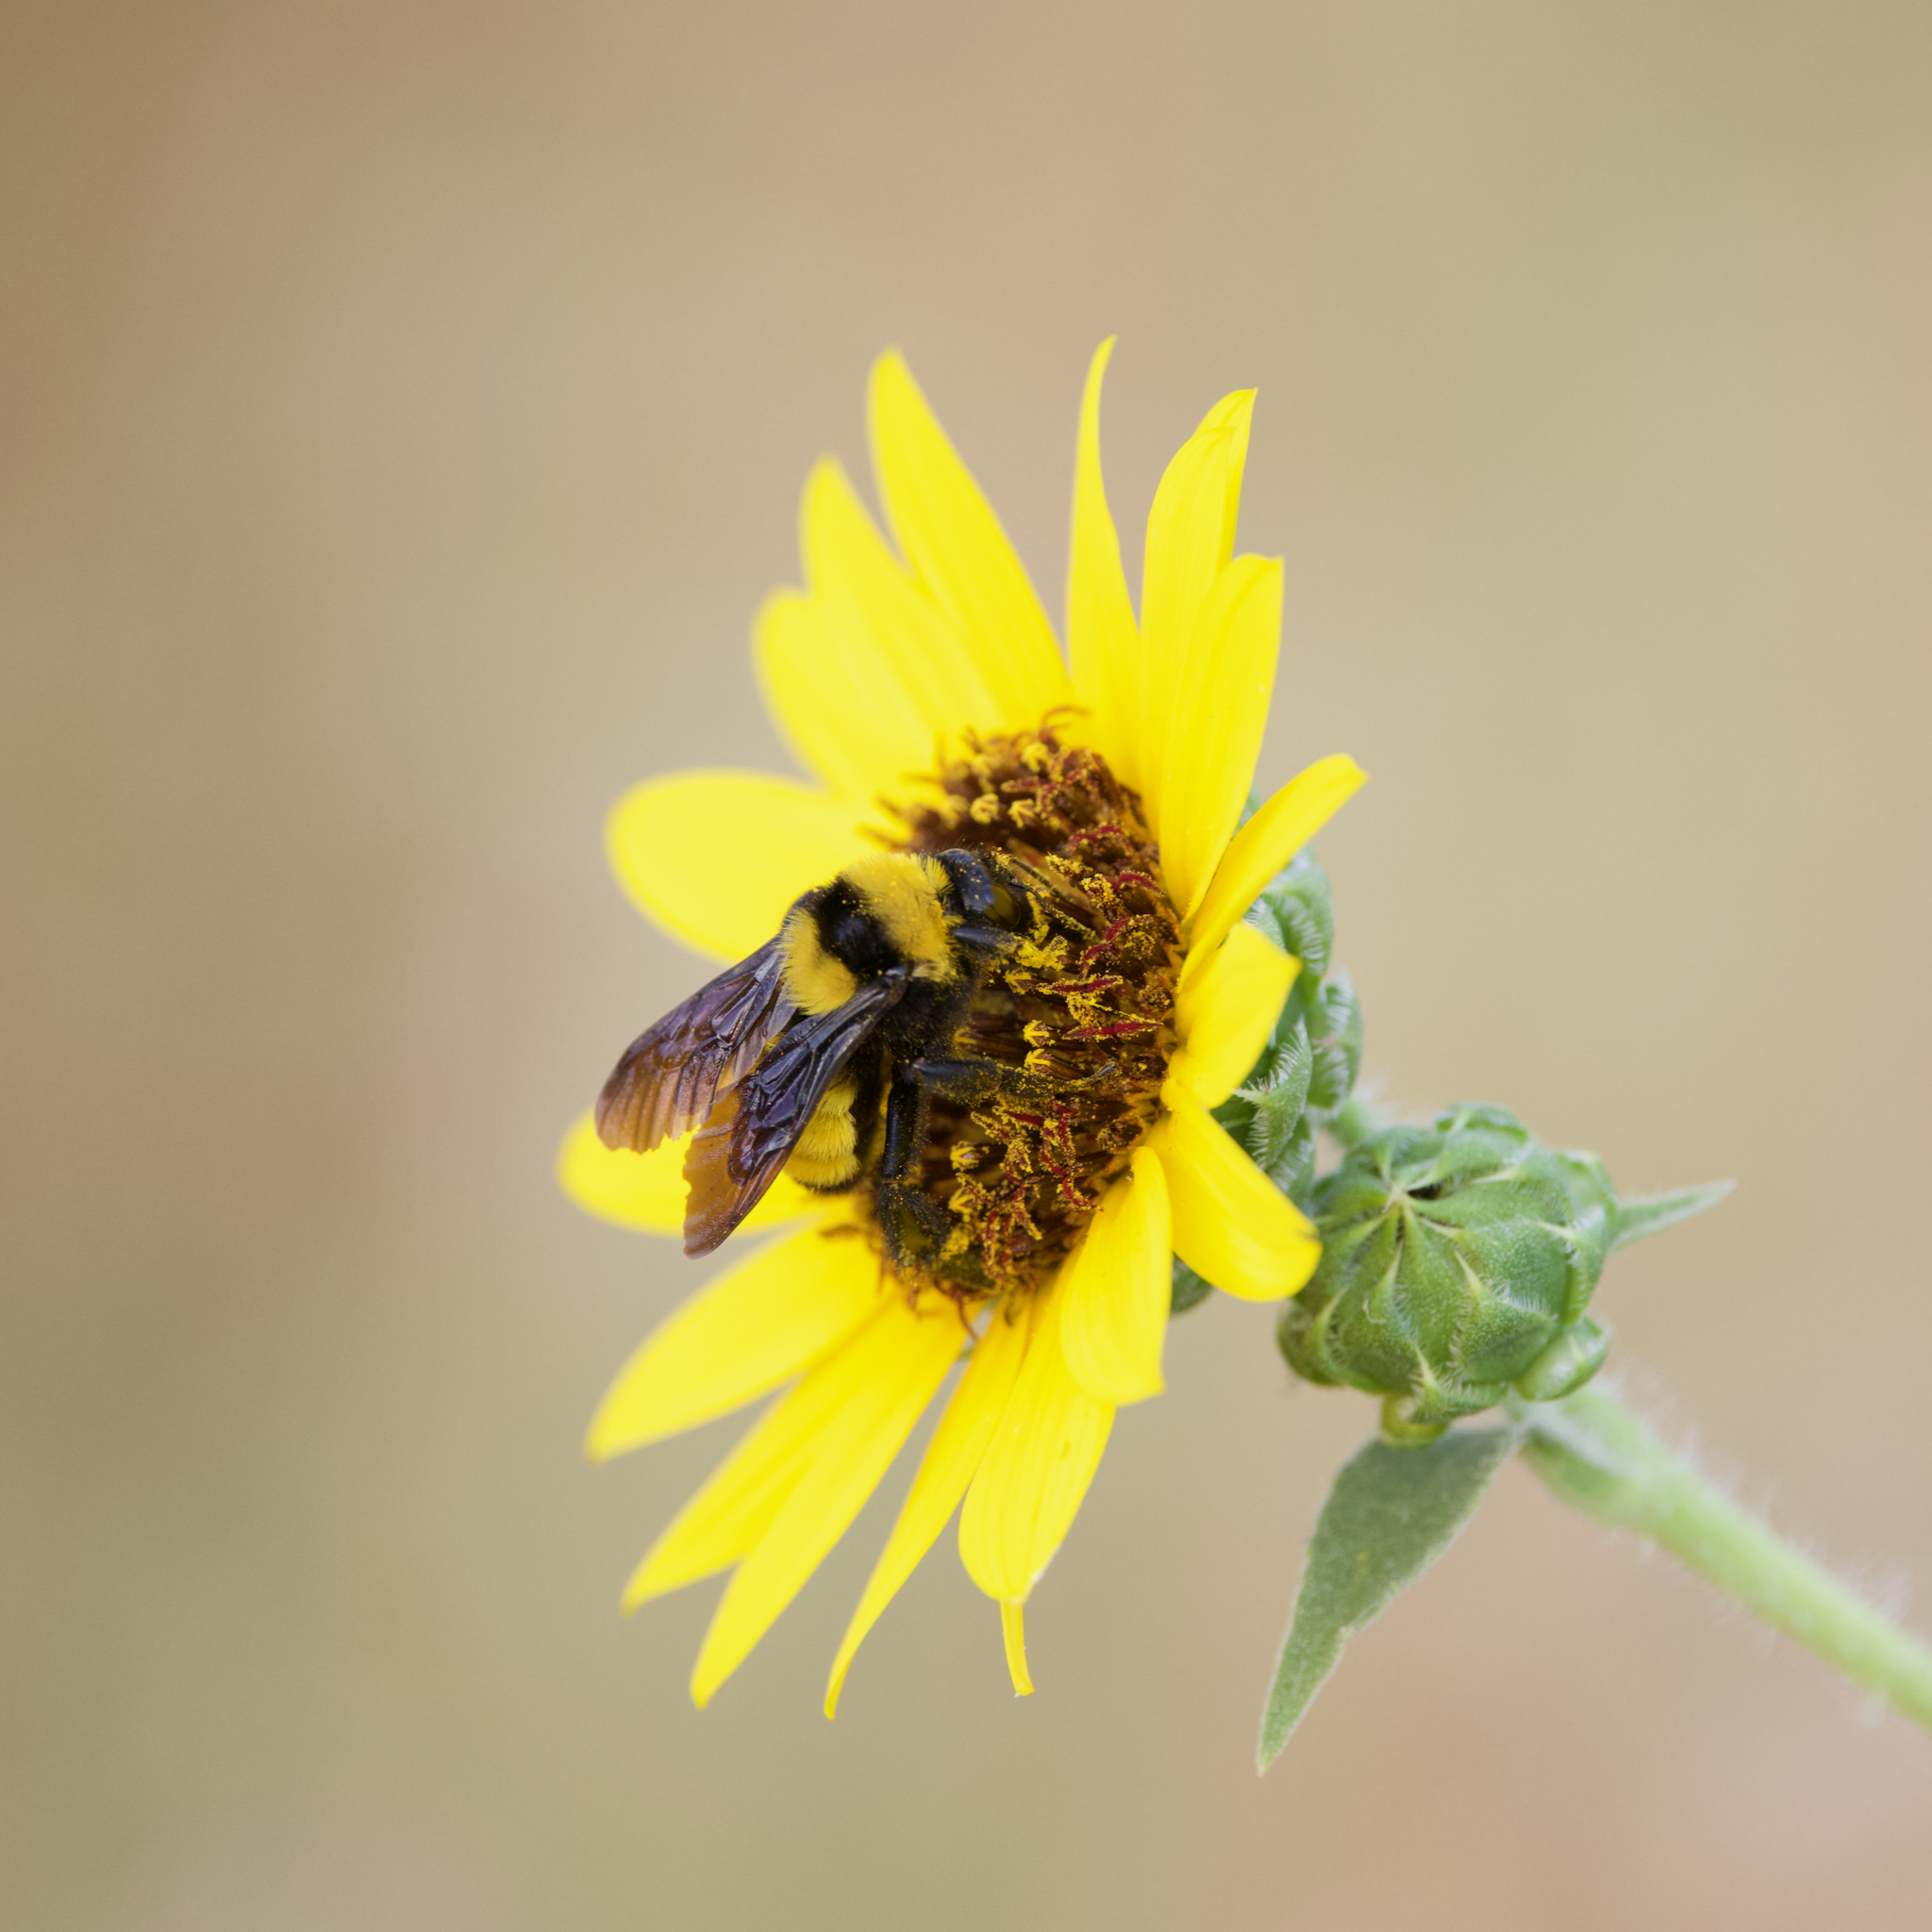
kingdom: Animalia
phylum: Arthropoda
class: Insecta
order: Hymenoptera
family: Apidae
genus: Bombus
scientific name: Bombus sonorus
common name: Sonoran bumble bee
